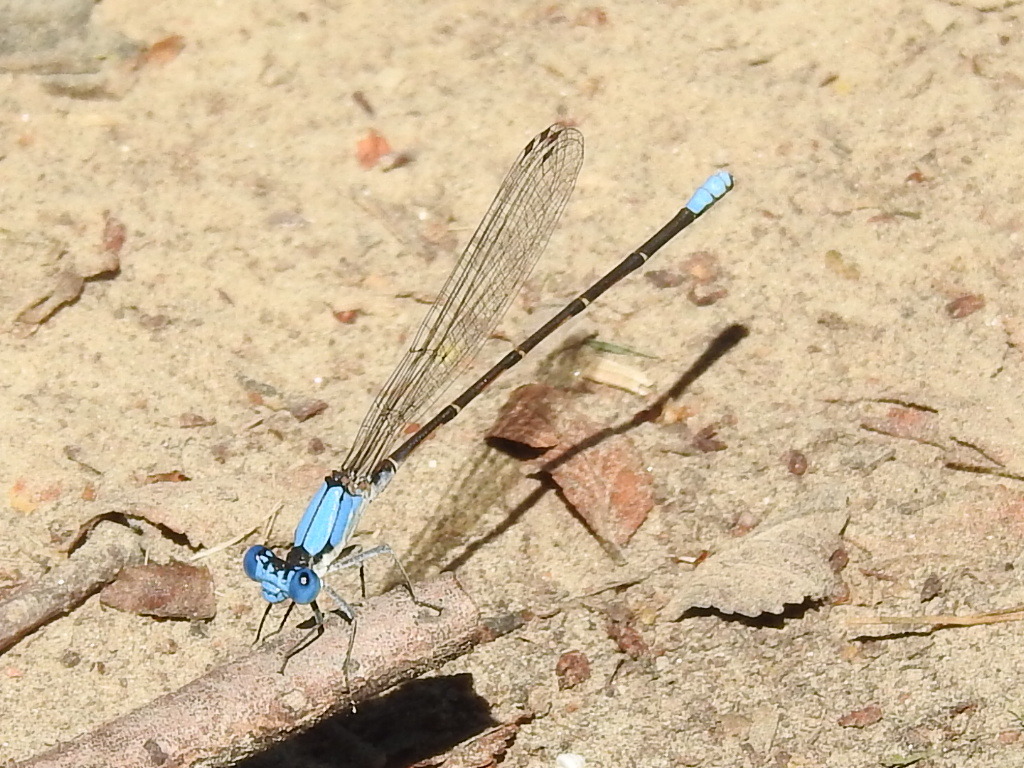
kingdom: Animalia
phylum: Arthropoda
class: Insecta
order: Odonata
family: Coenagrionidae
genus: Argia
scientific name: Argia apicalis
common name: Blue-fronted dancer
